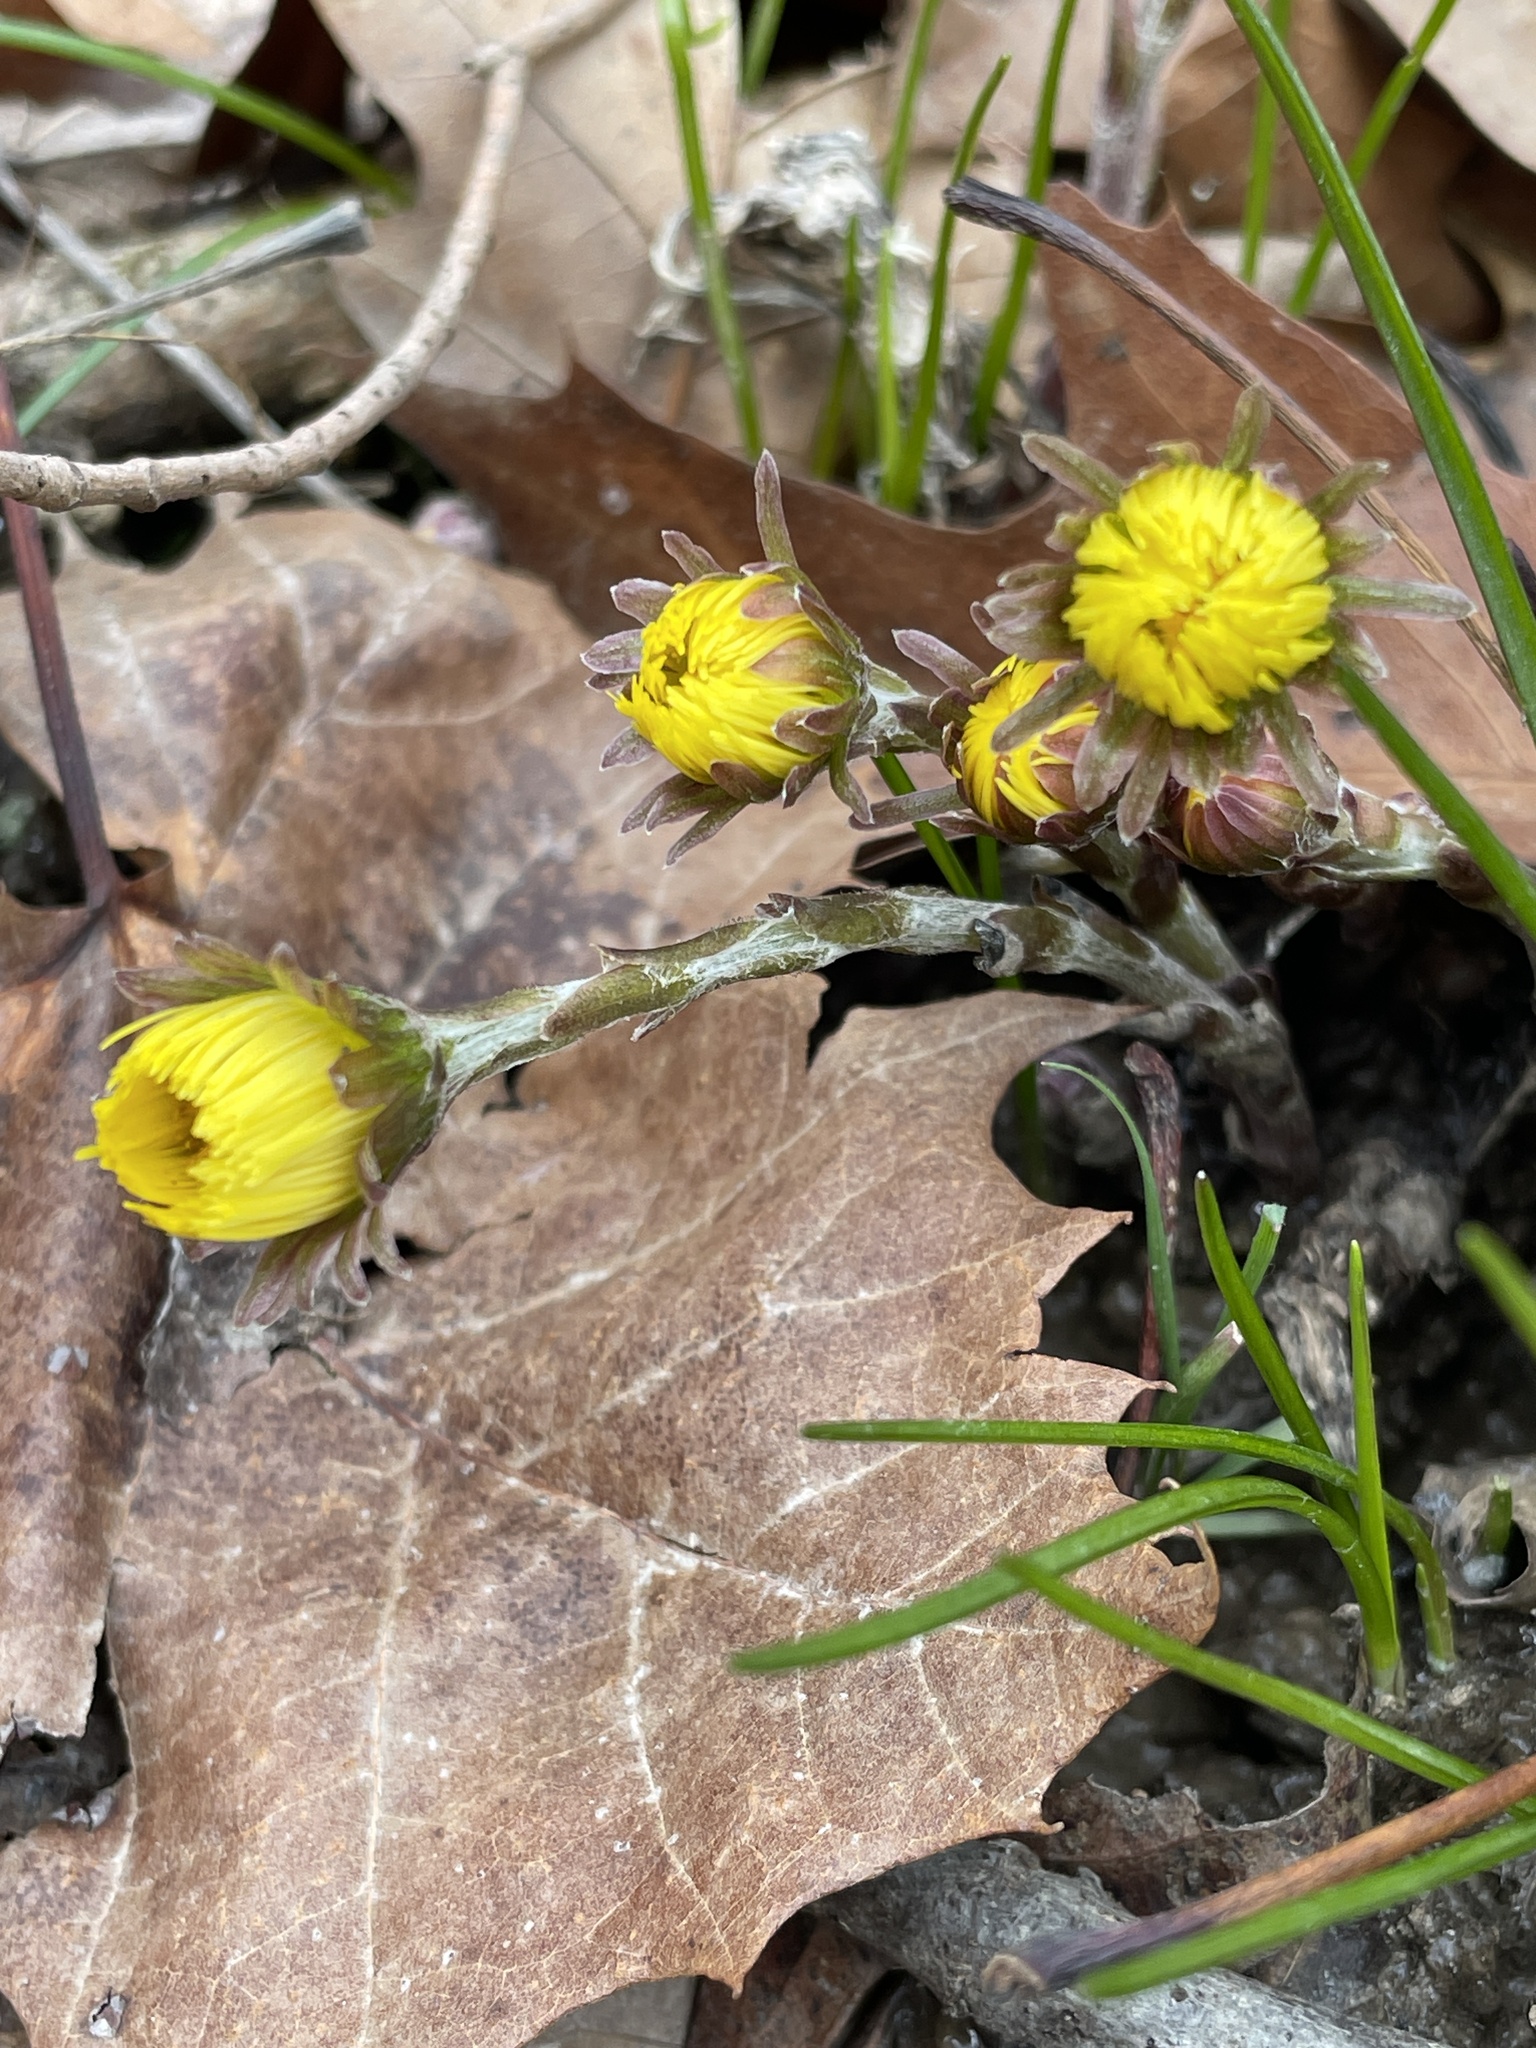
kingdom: Plantae
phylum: Tracheophyta
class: Magnoliopsida
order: Asterales
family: Asteraceae
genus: Tussilago
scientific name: Tussilago farfara
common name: Coltsfoot
